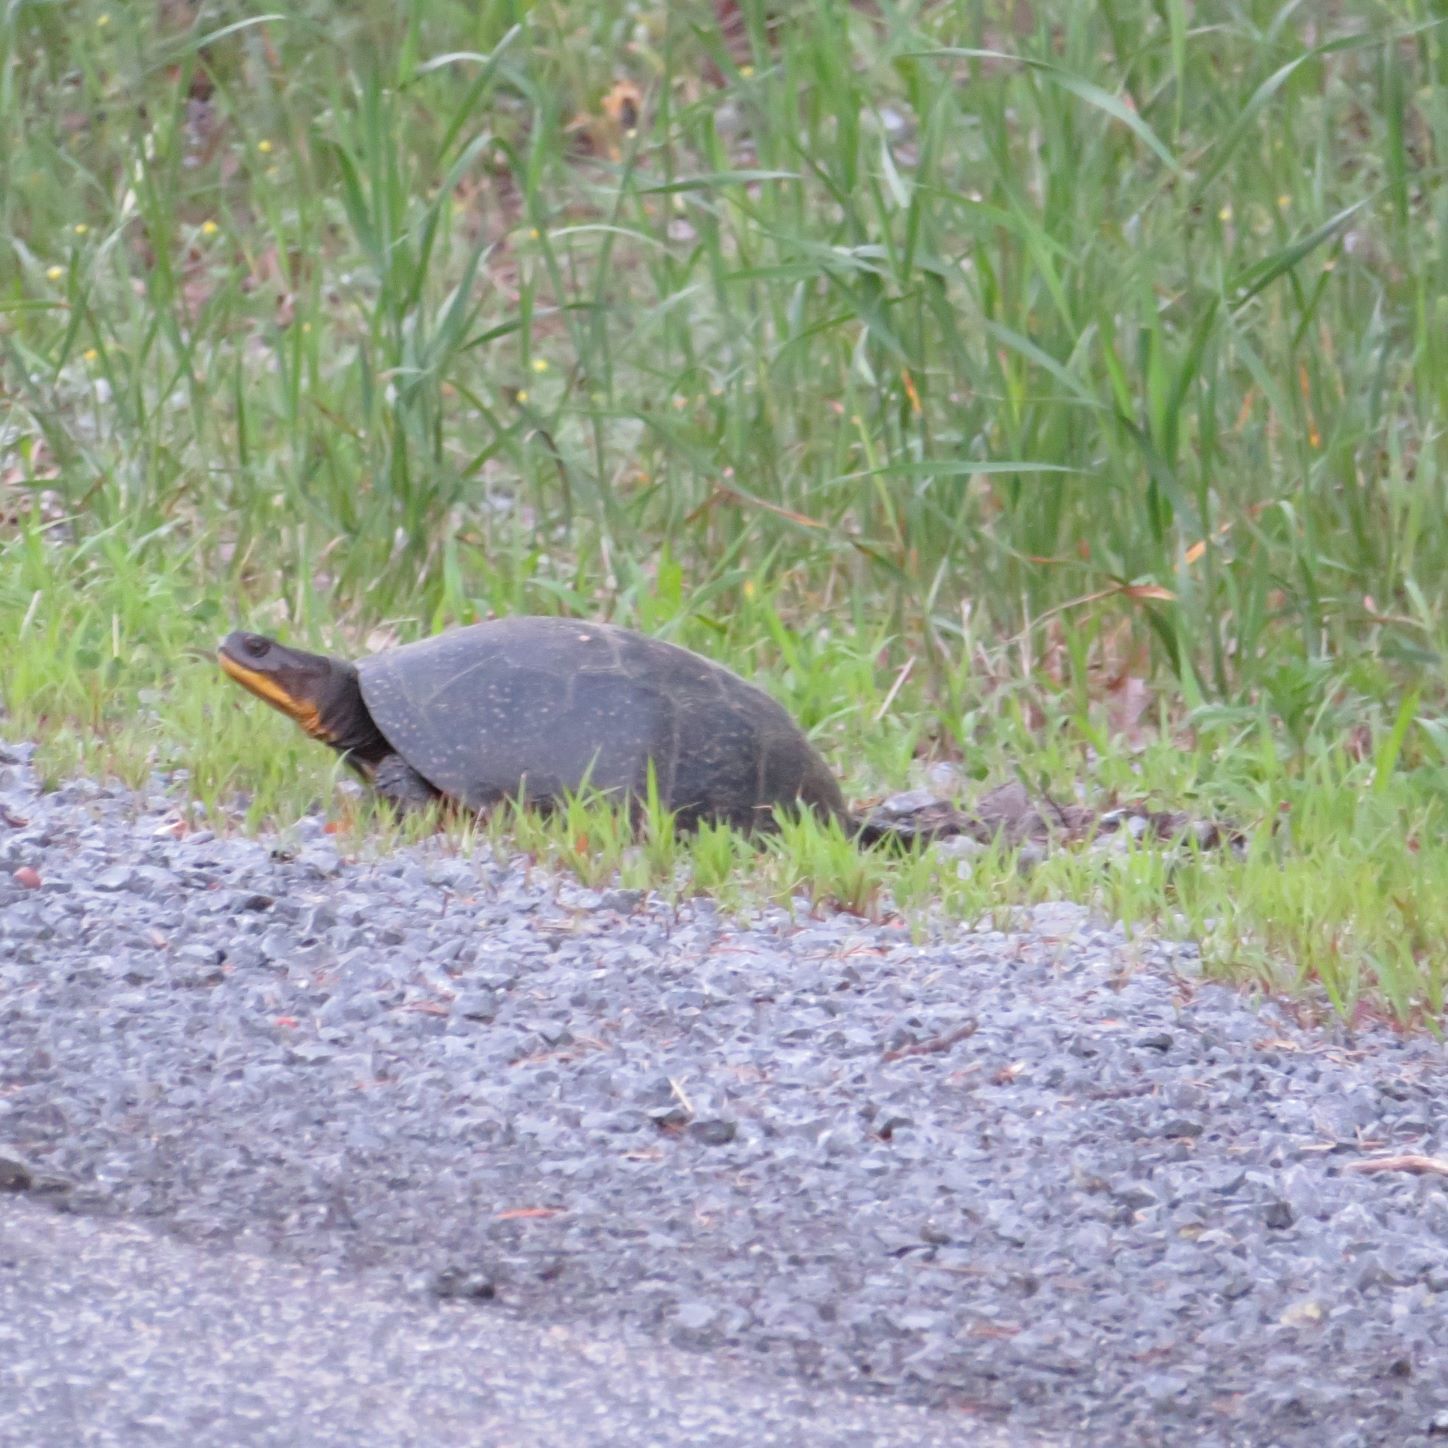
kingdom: Animalia
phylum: Chordata
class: Testudines
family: Emydidae
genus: Emys
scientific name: Emys blandingii
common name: Blanding's turtle
